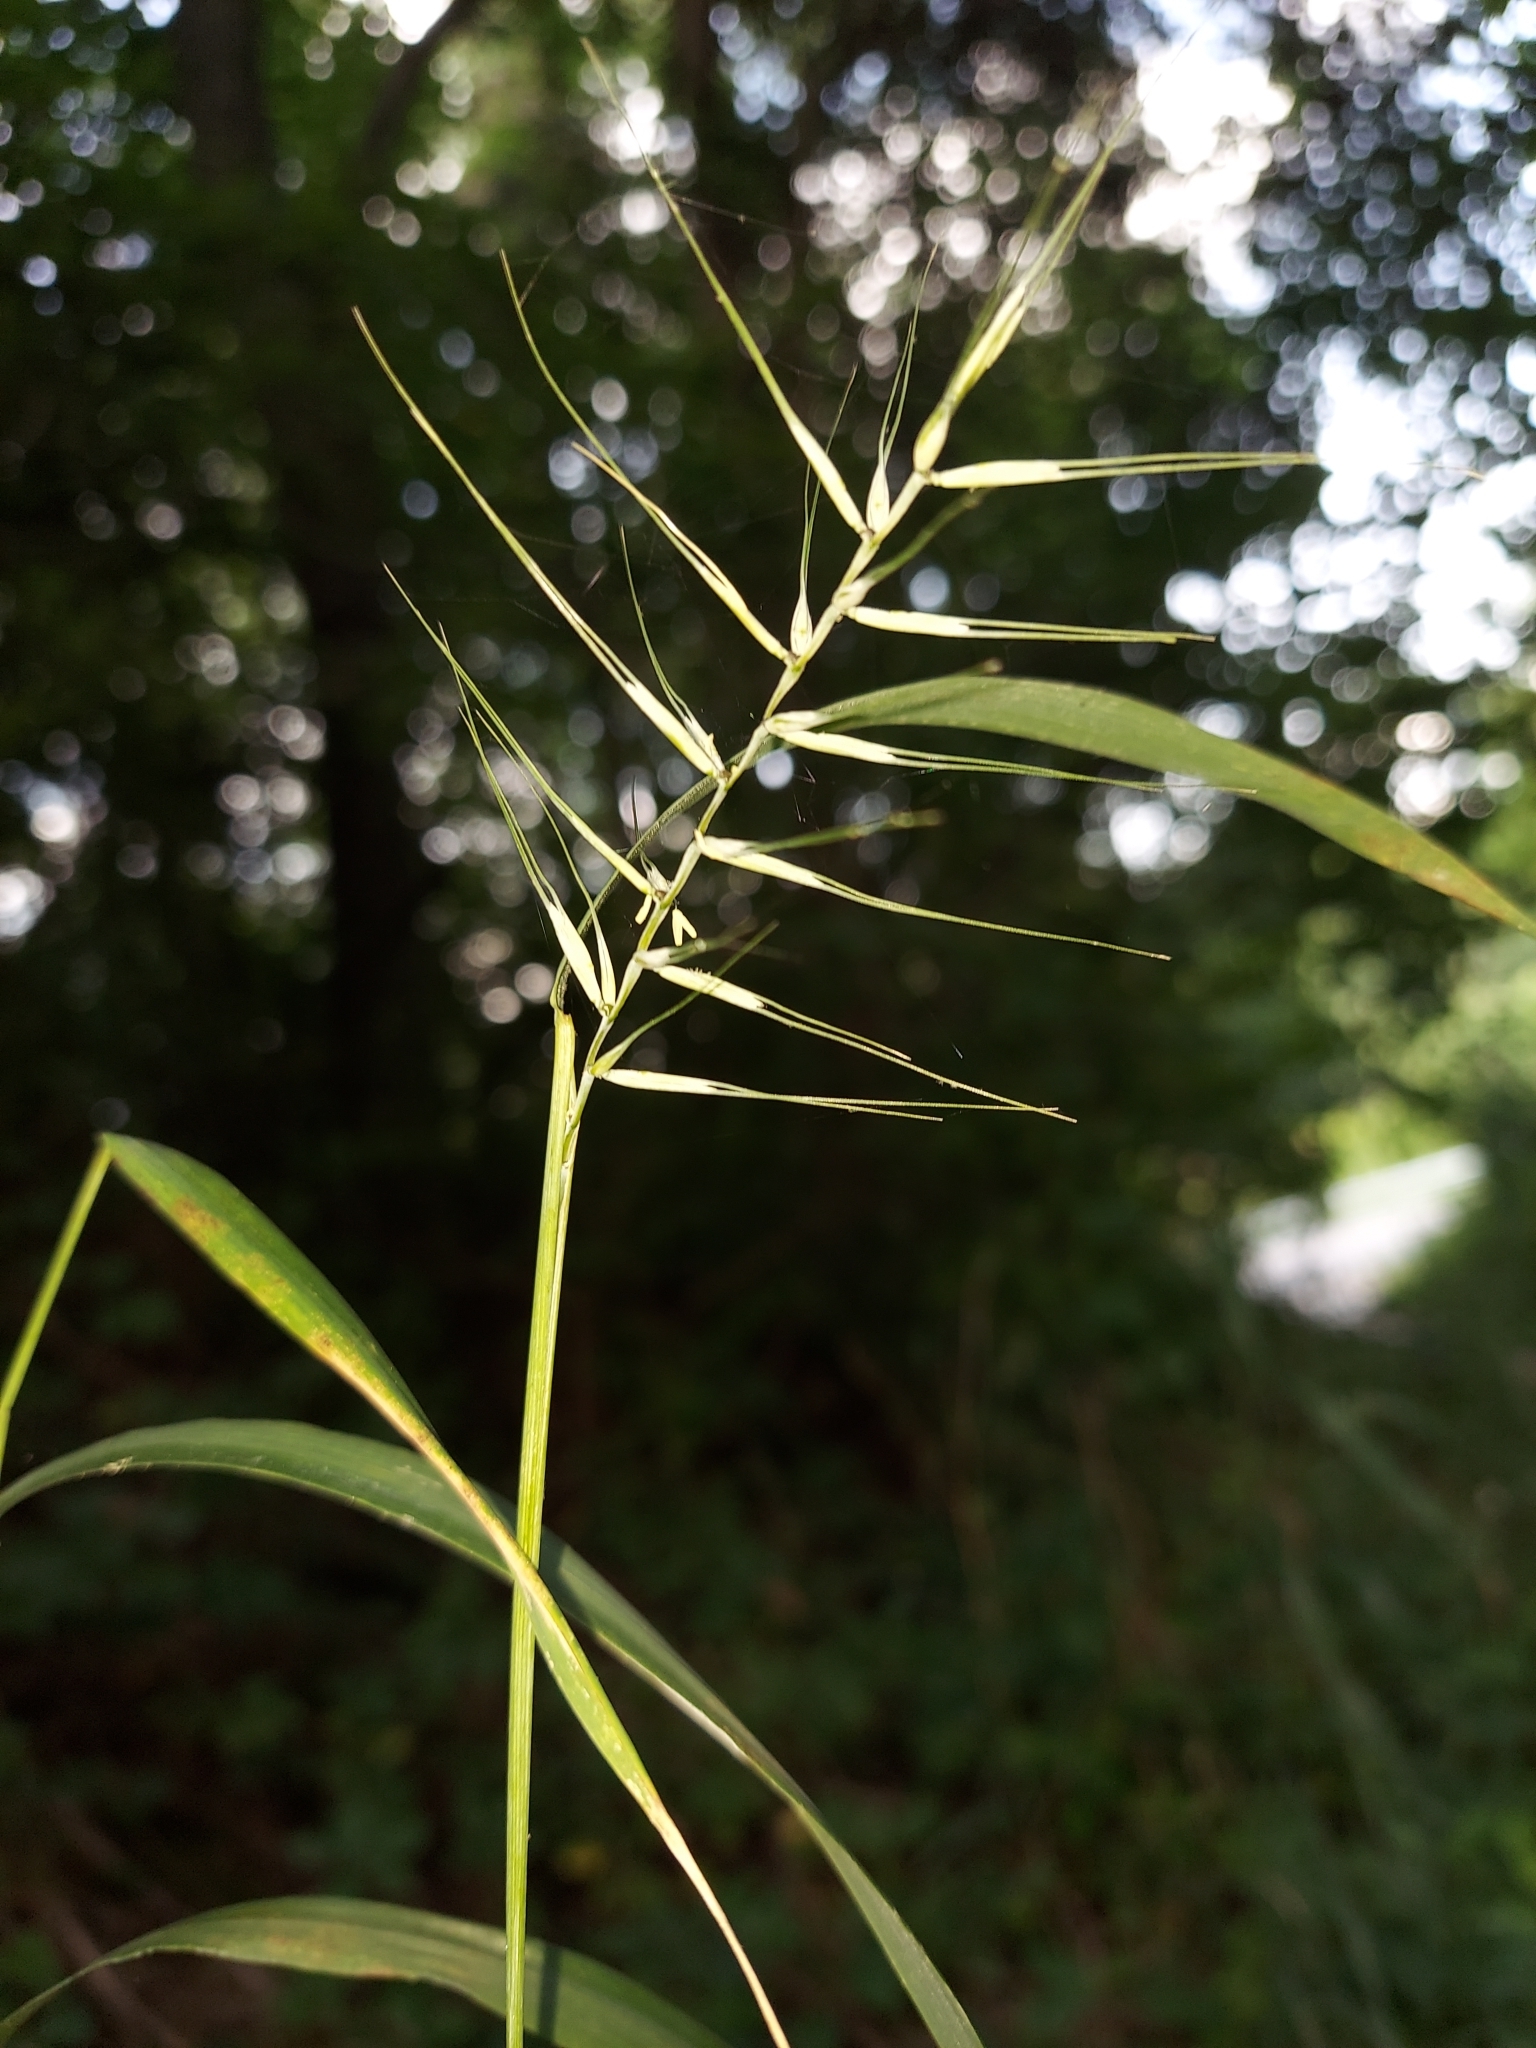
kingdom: Plantae
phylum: Tracheophyta
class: Liliopsida
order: Poales
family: Poaceae
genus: Elymus
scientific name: Elymus hystrix
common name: Bottlebrush grass
